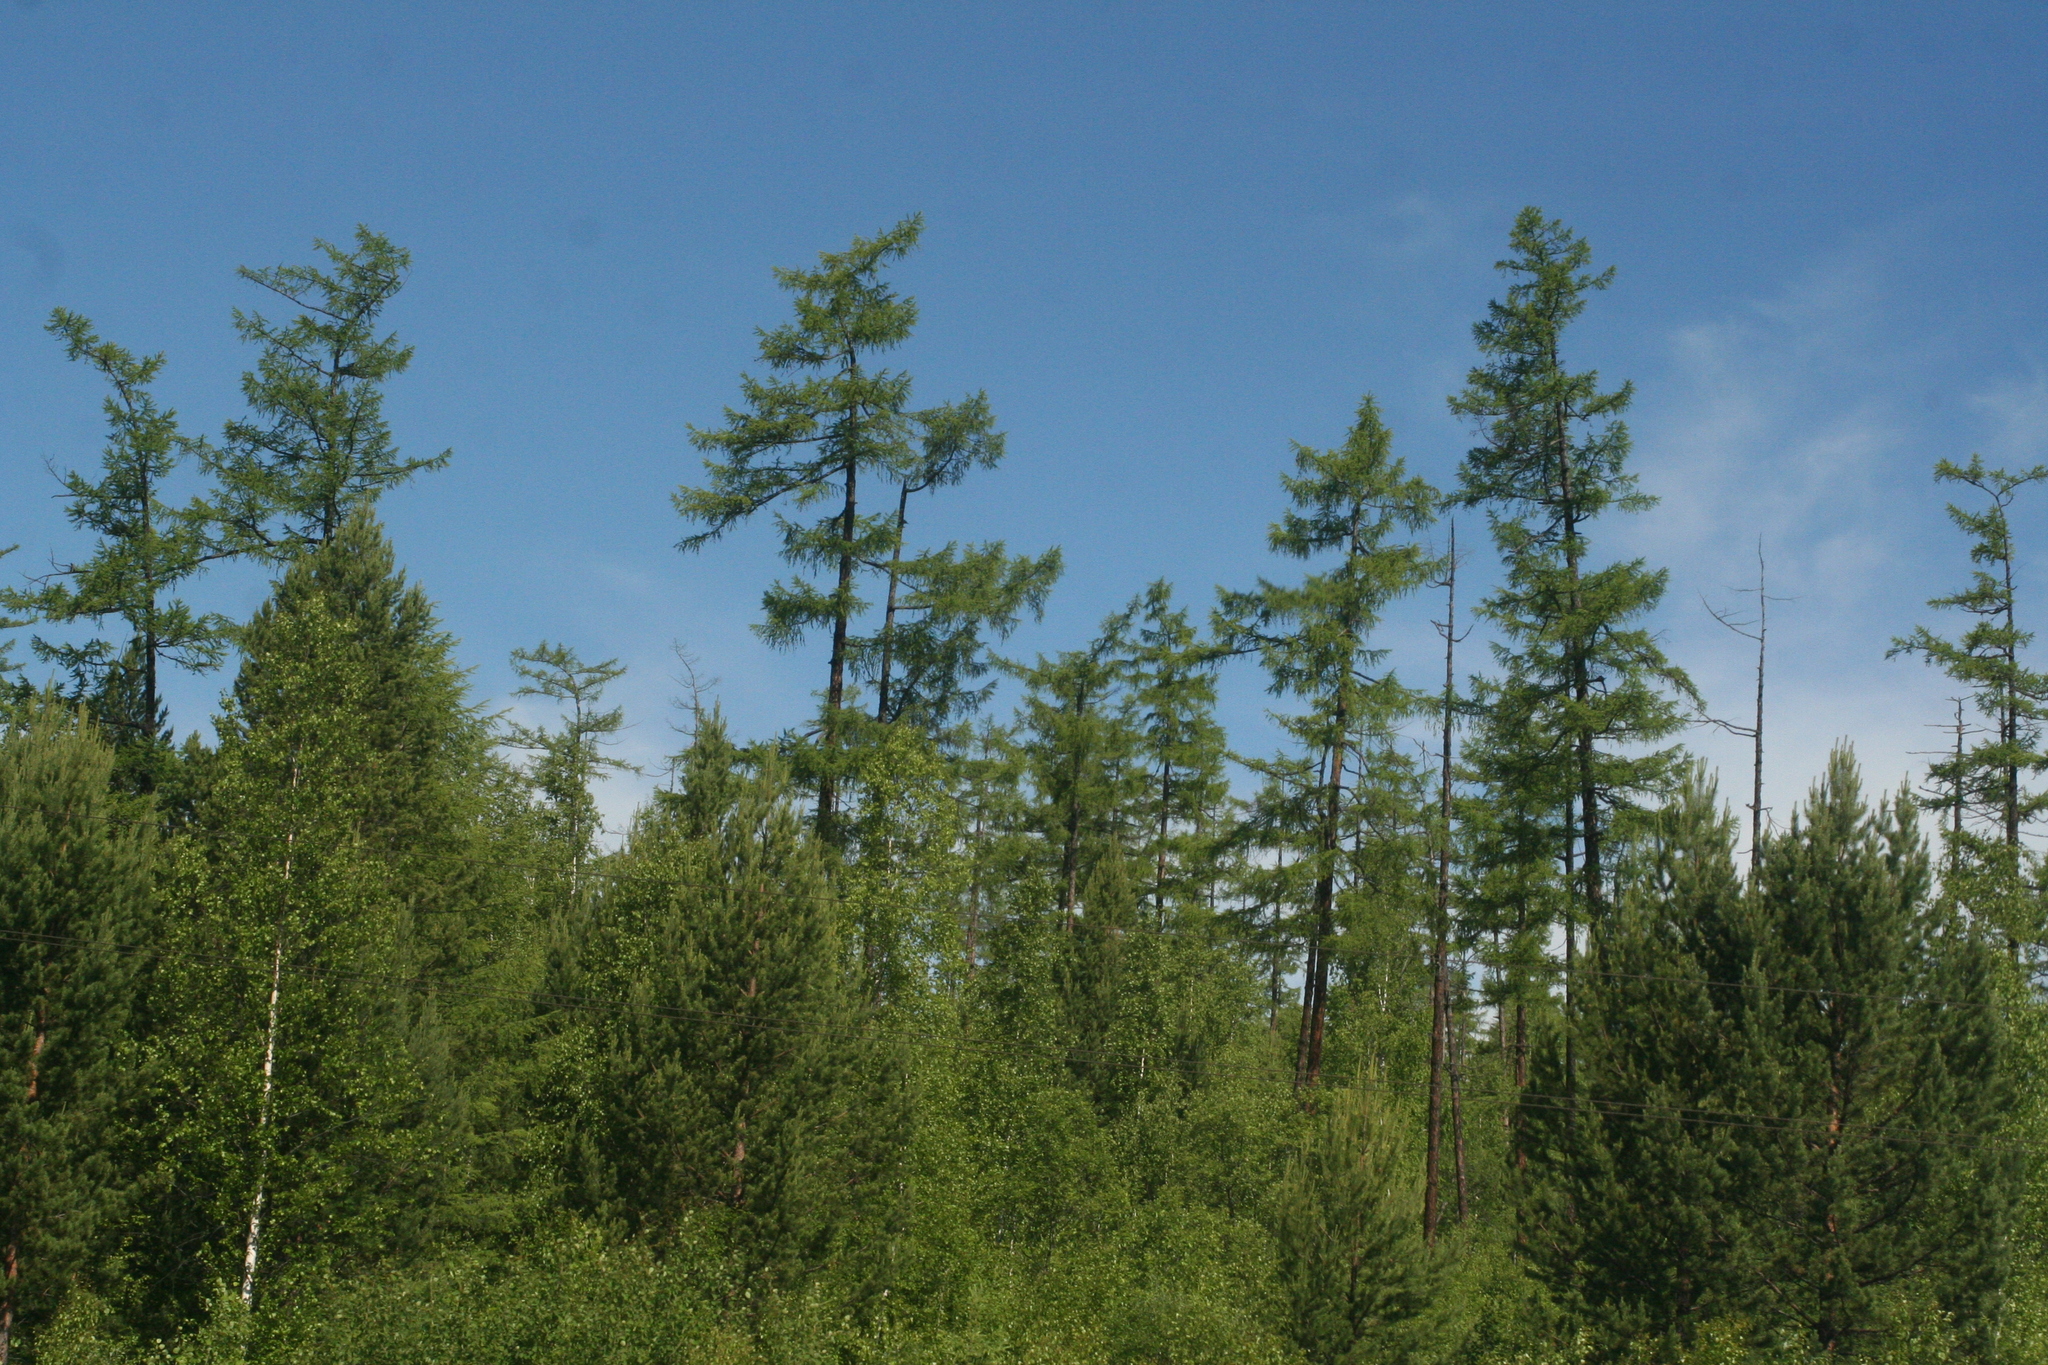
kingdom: Plantae
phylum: Tracheophyta
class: Pinopsida
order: Pinales
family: Pinaceae
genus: Larix
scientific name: Larix sibirica
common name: Siberian larch
